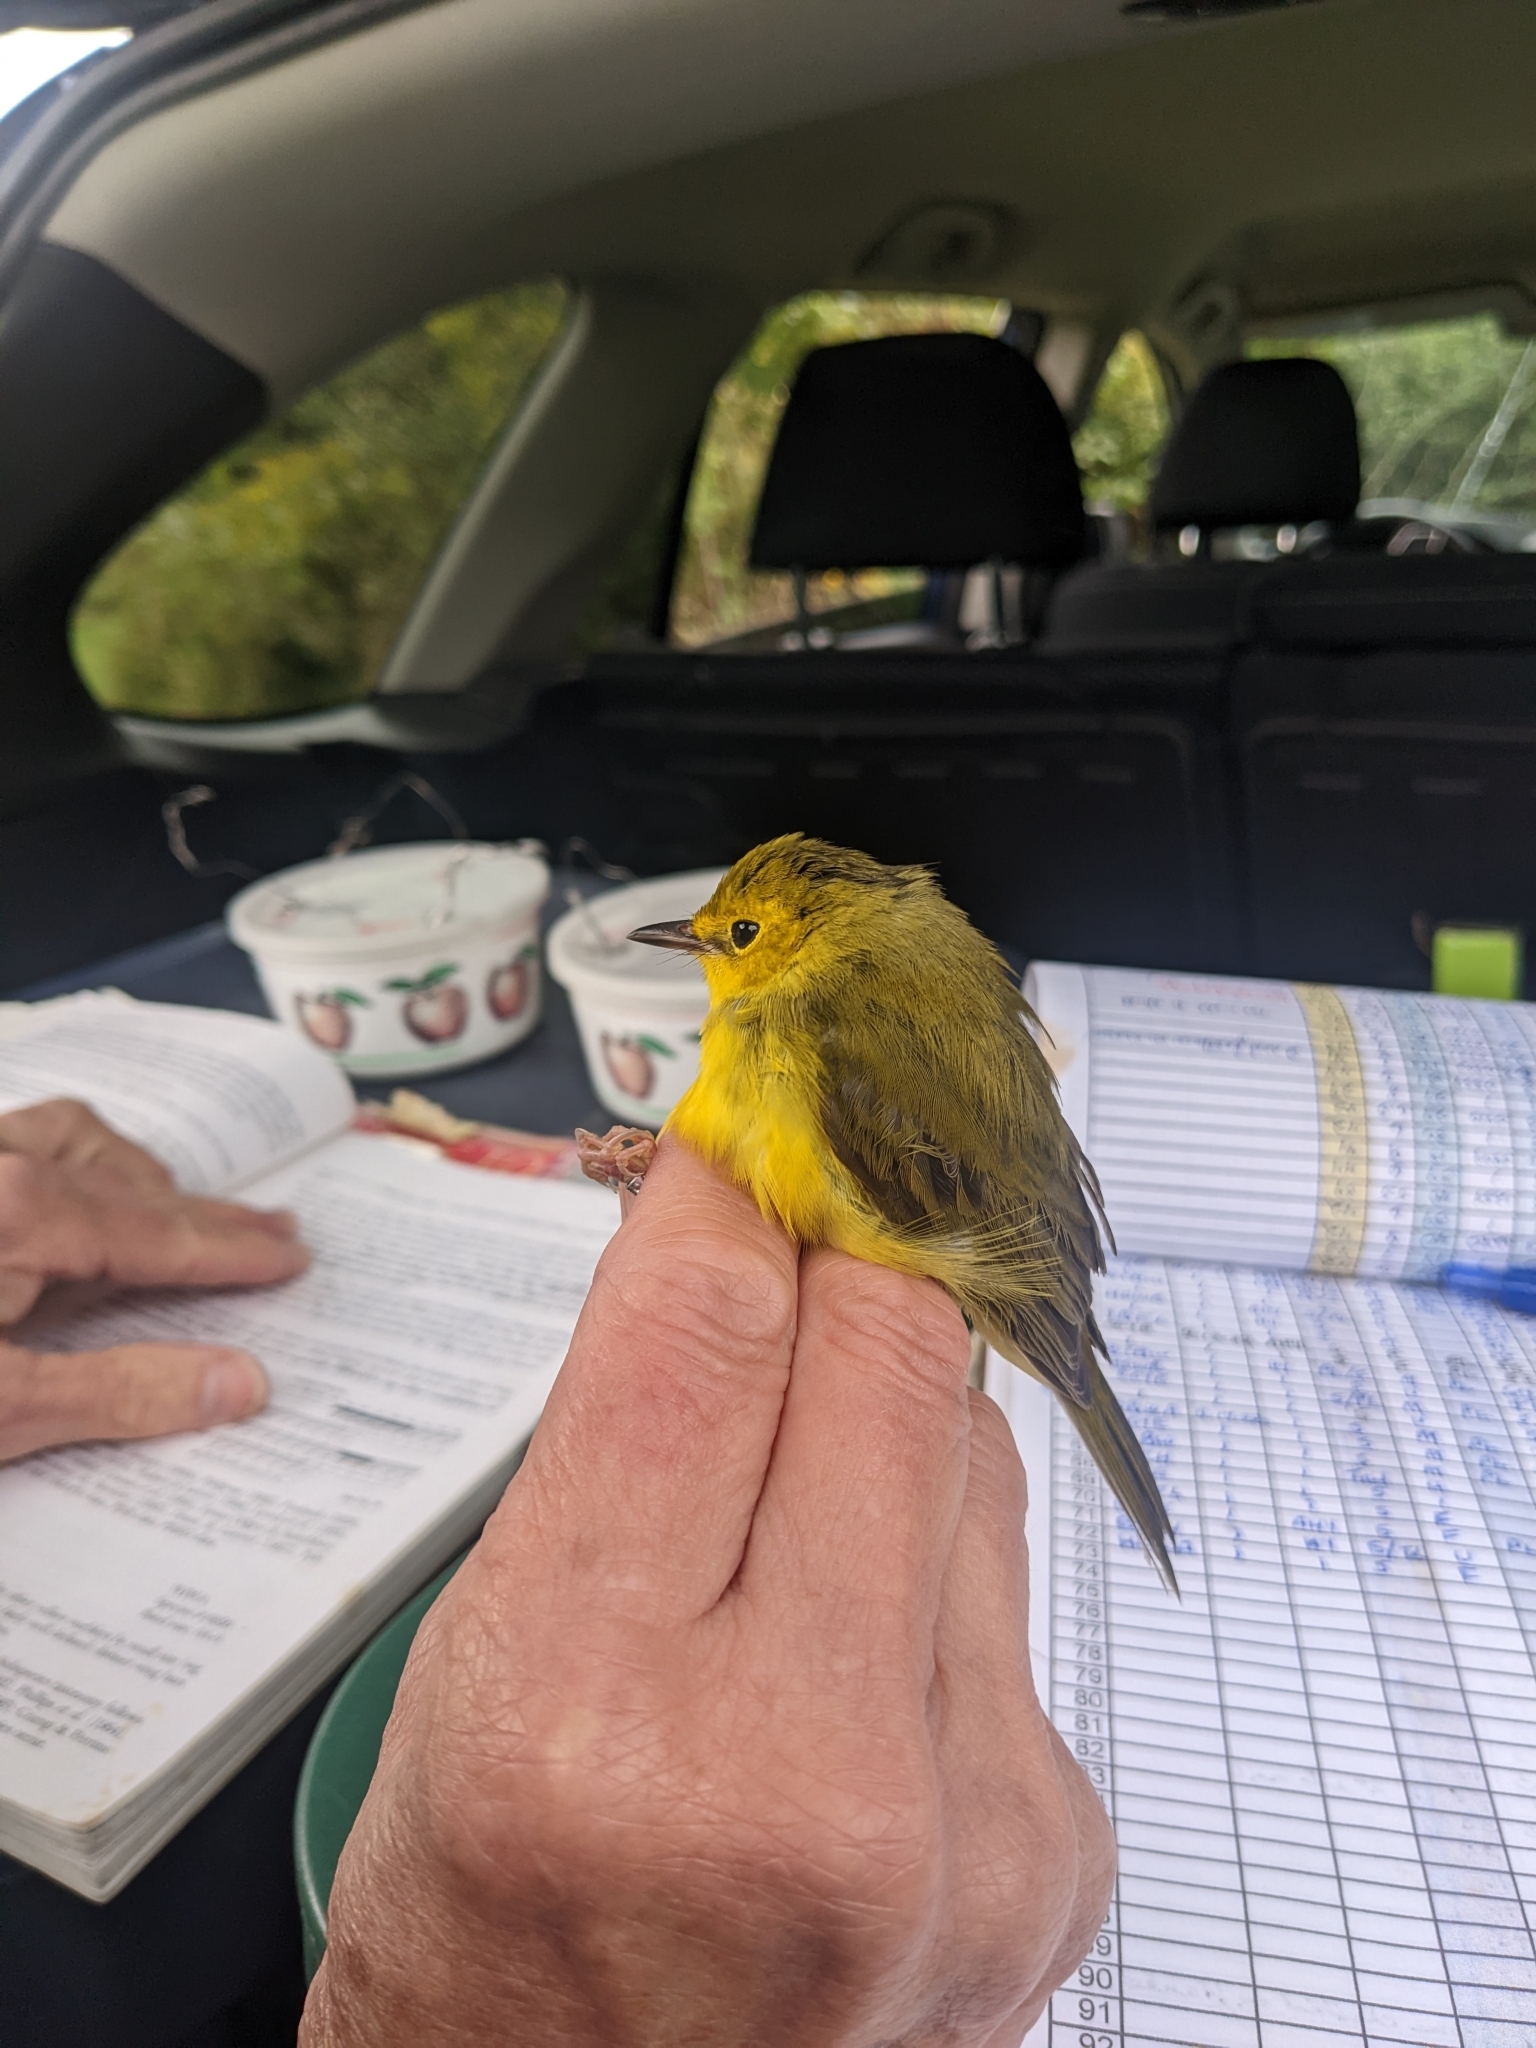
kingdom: Animalia
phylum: Chordata
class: Aves
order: Passeriformes
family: Parulidae
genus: Setophaga
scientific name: Setophaga citrina
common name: Hooded warbler
